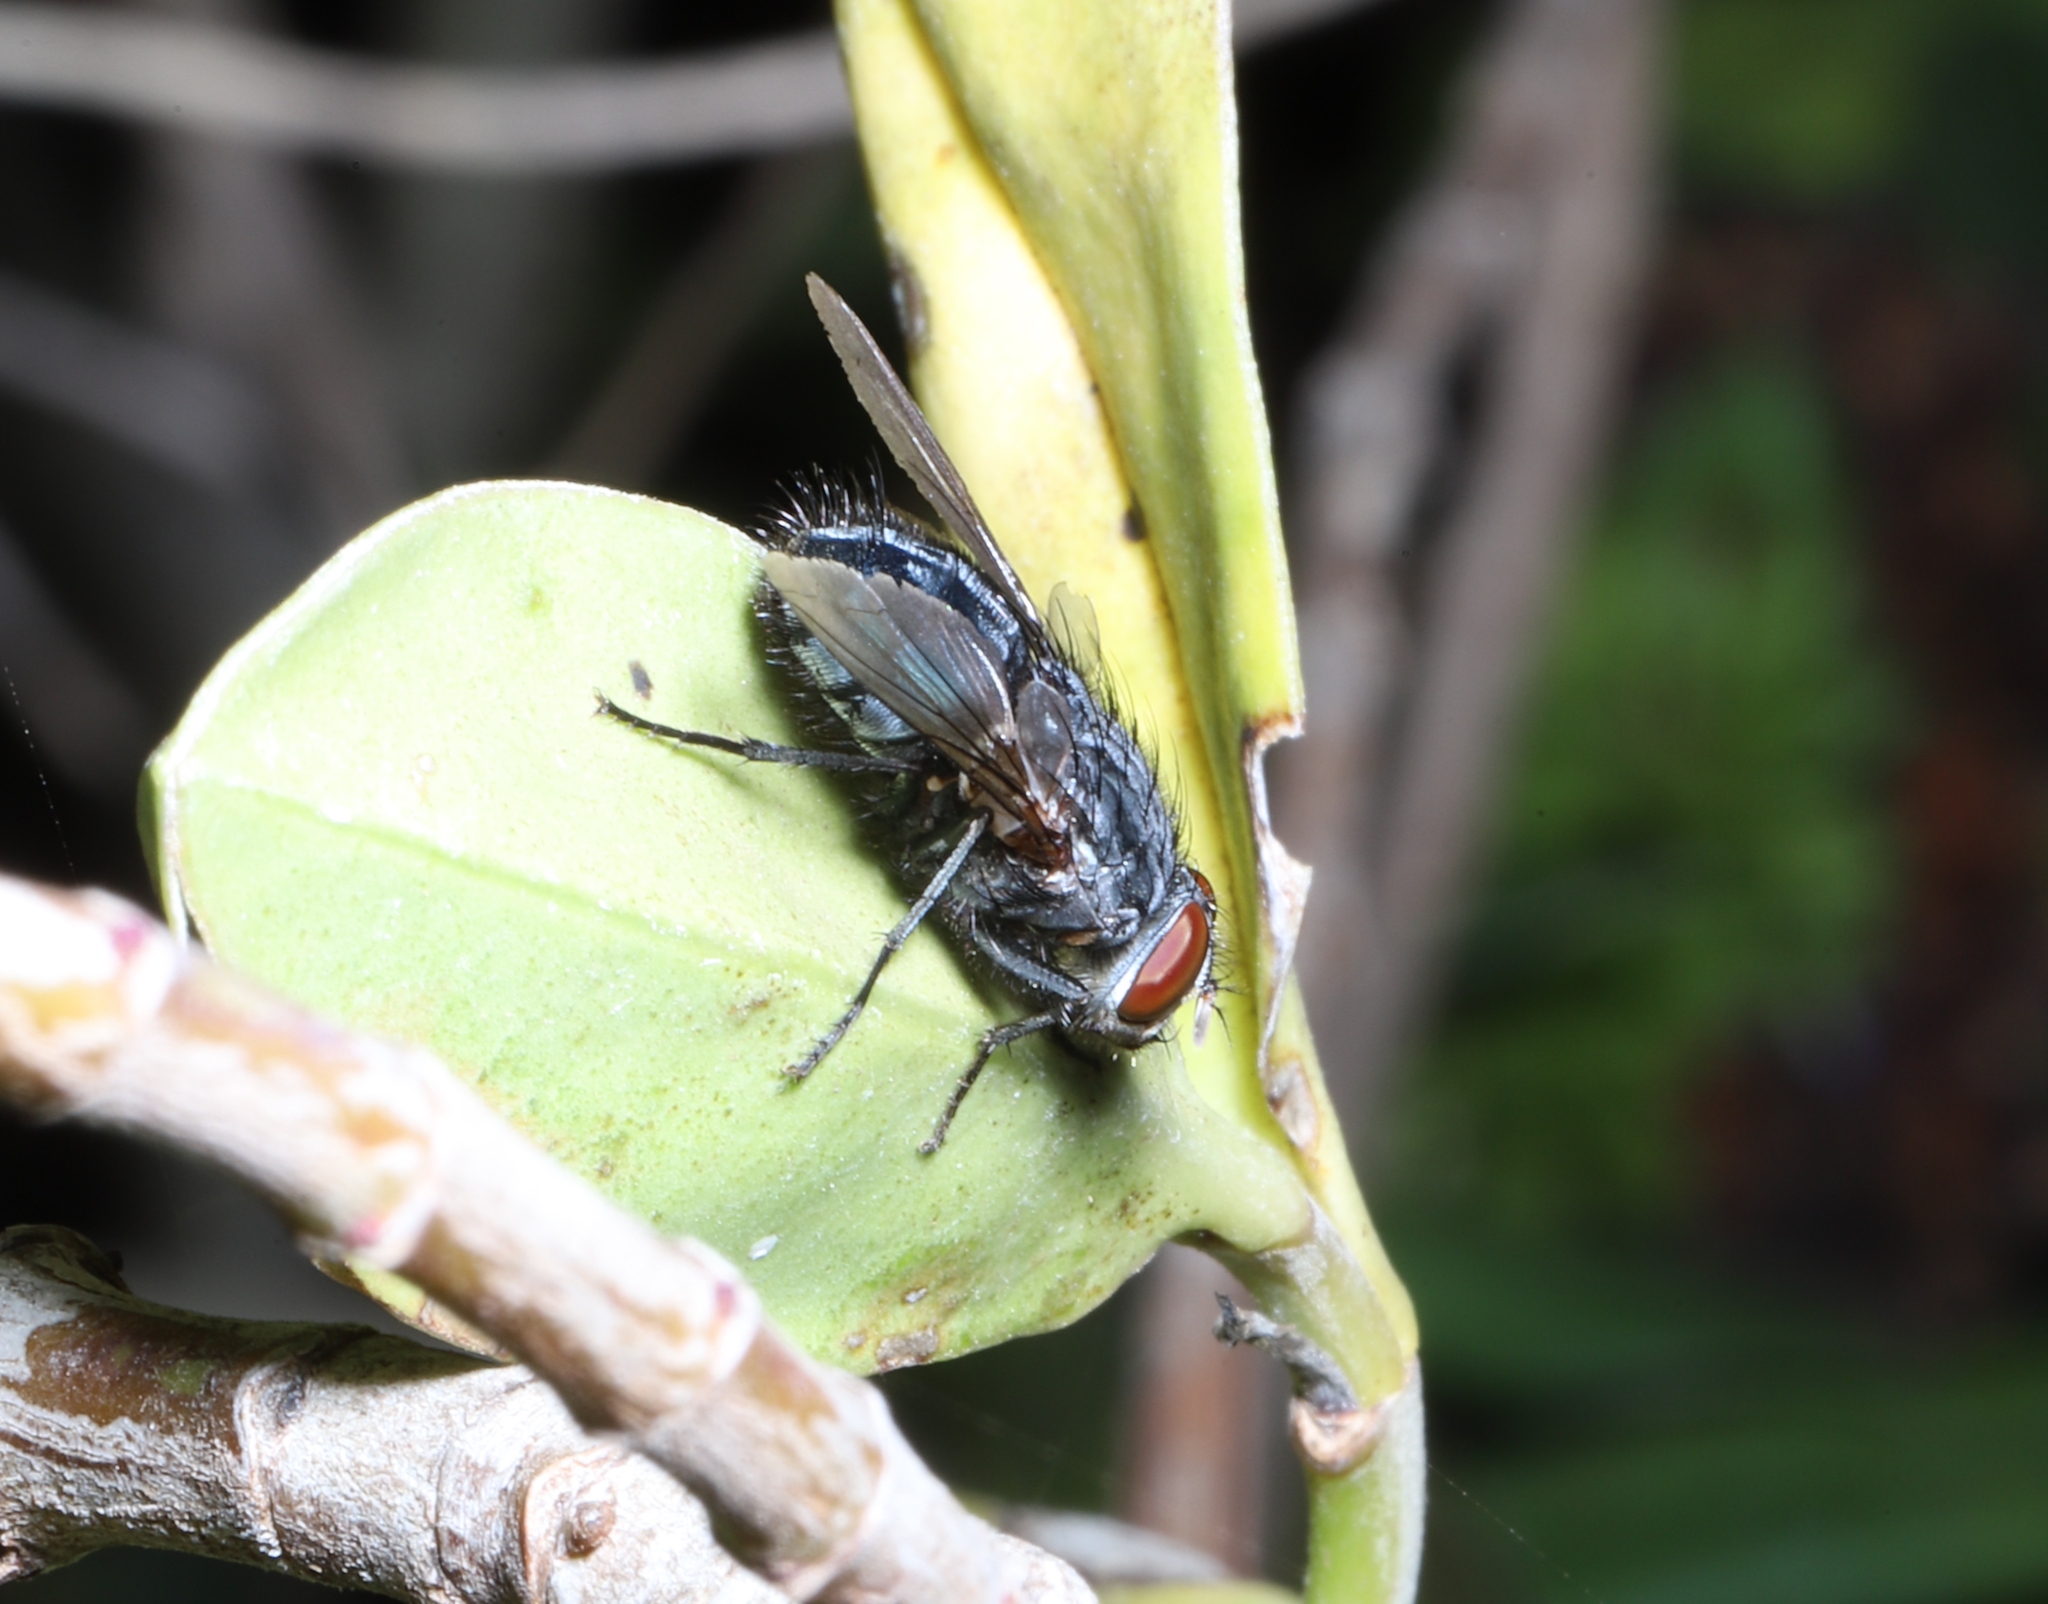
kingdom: Animalia
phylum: Arthropoda
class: Insecta
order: Diptera
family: Calliphoridae
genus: Calliphora
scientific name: Calliphora vicina
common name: Common blow flie
